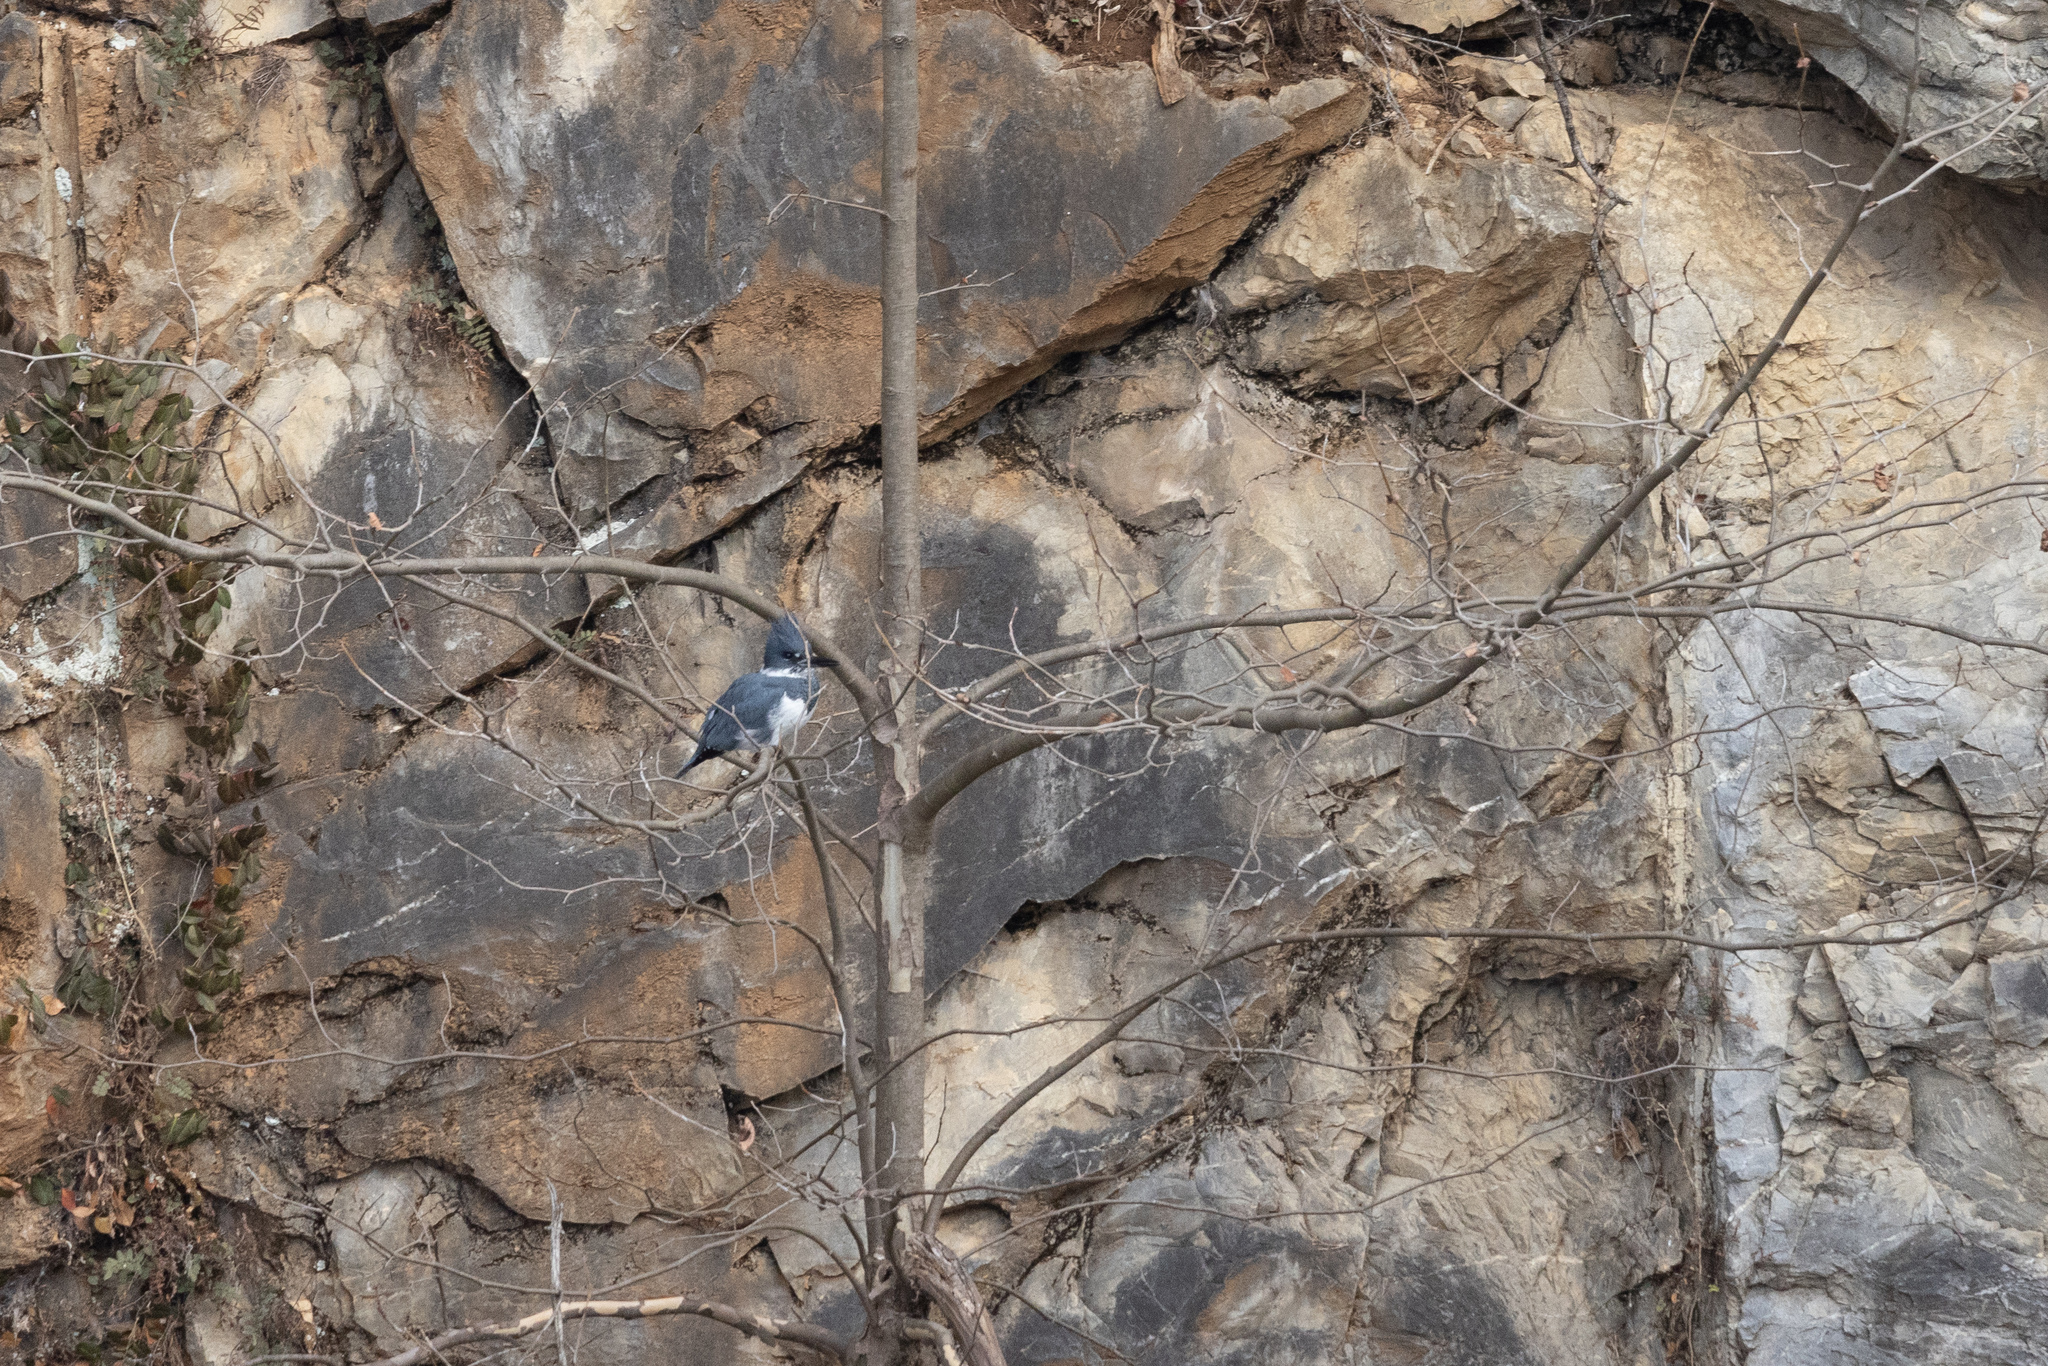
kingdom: Animalia
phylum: Chordata
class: Aves
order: Coraciiformes
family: Alcedinidae
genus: Megaceryle
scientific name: Megaceryle alcyon
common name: Belted kingfisher
